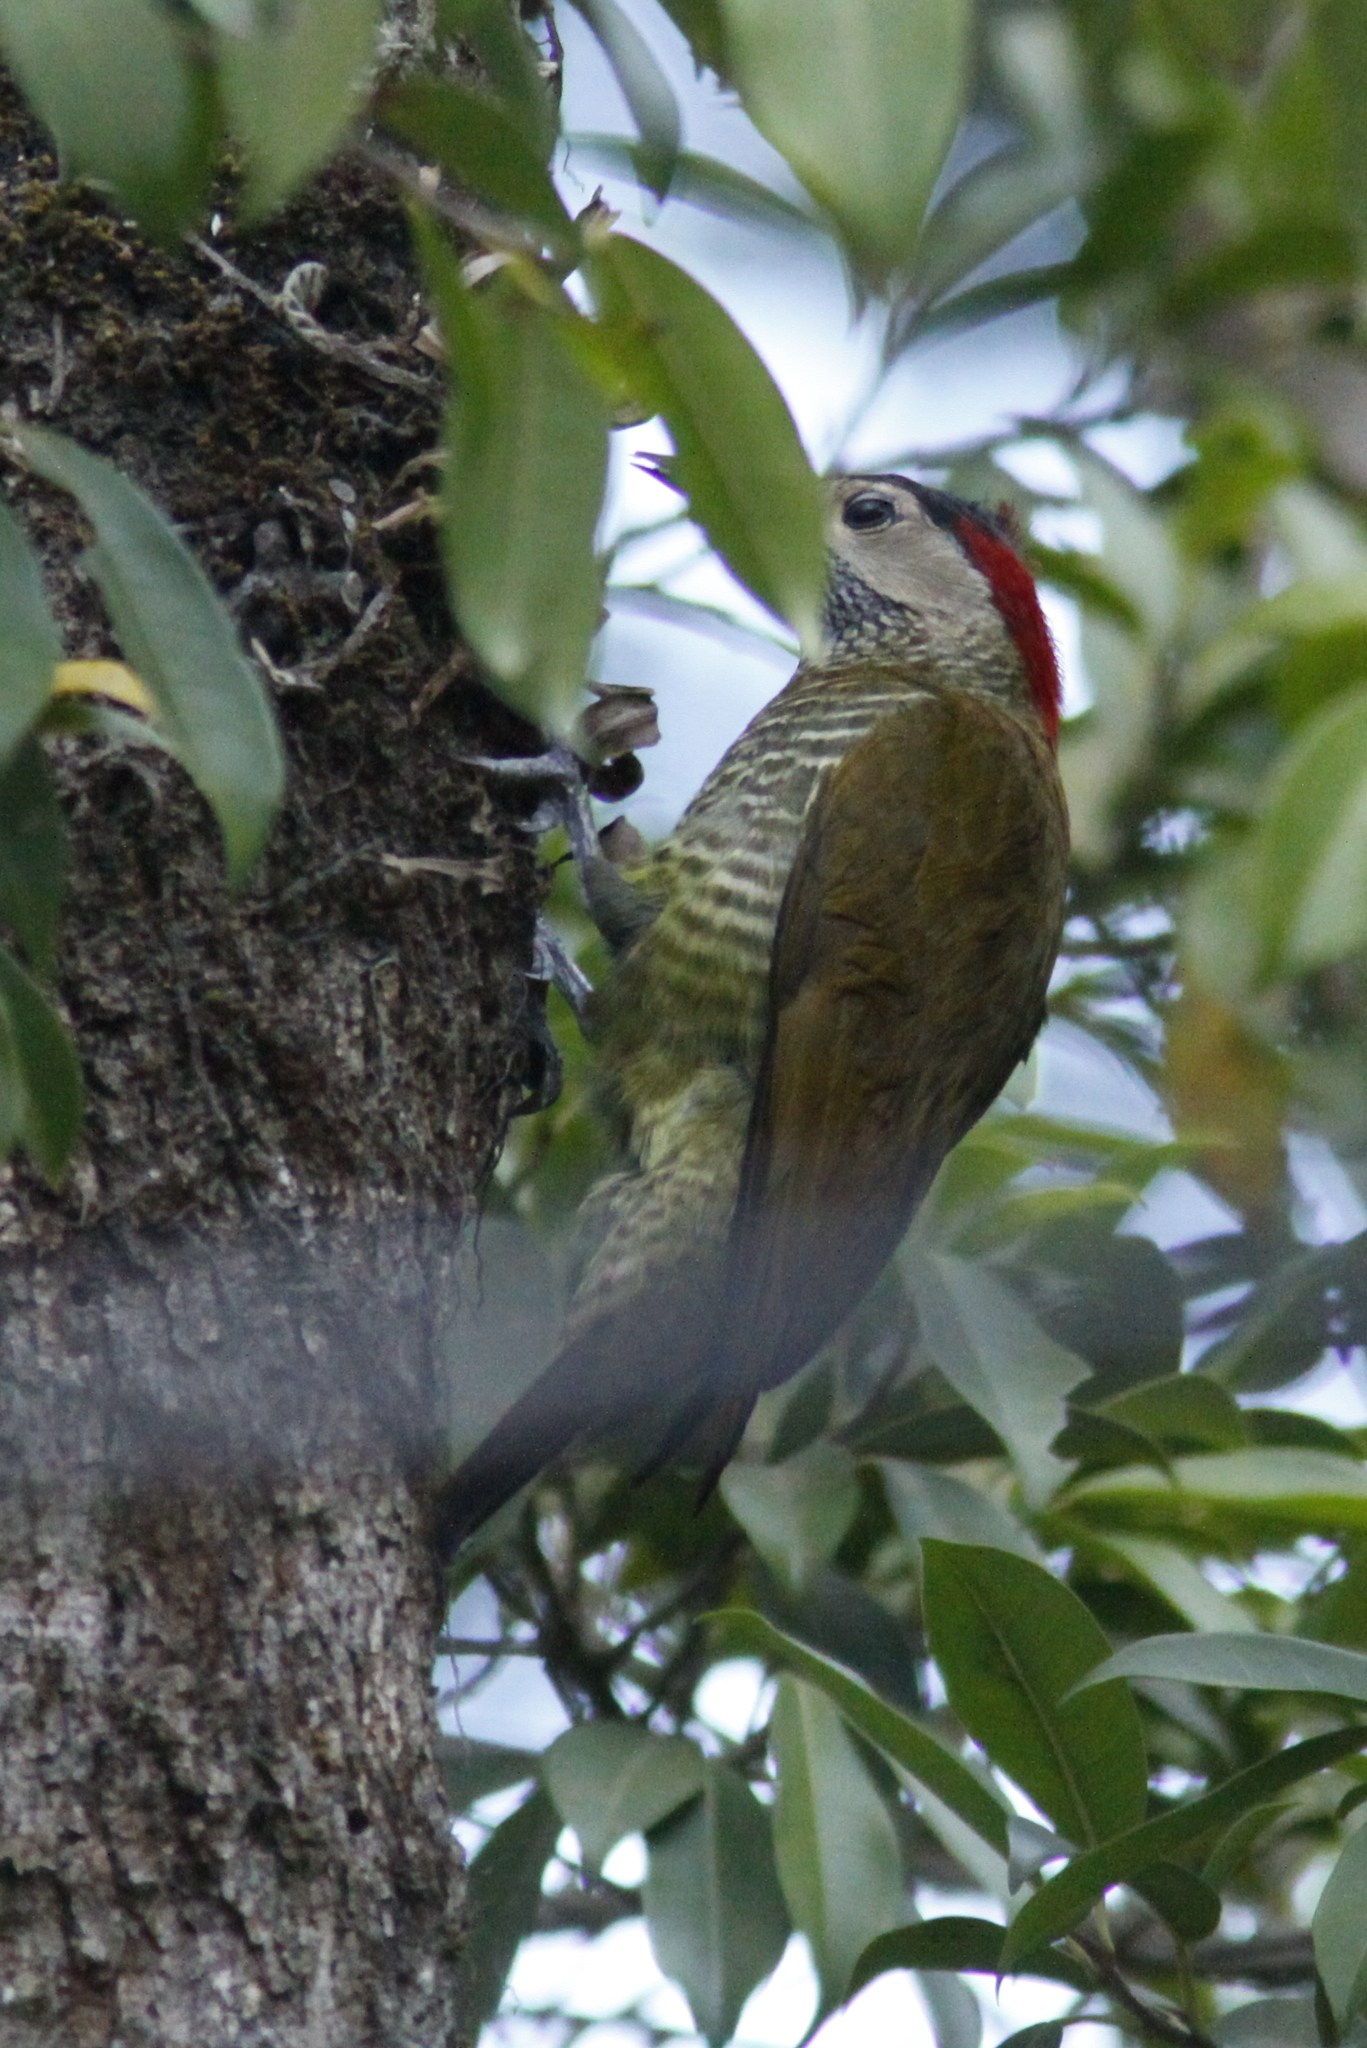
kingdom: Animalia
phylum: Chordata
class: Aves
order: Piciformes
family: Picidae
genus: Colaptes
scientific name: Colaptes rubiginosus
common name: Golden-olive woodpecker
